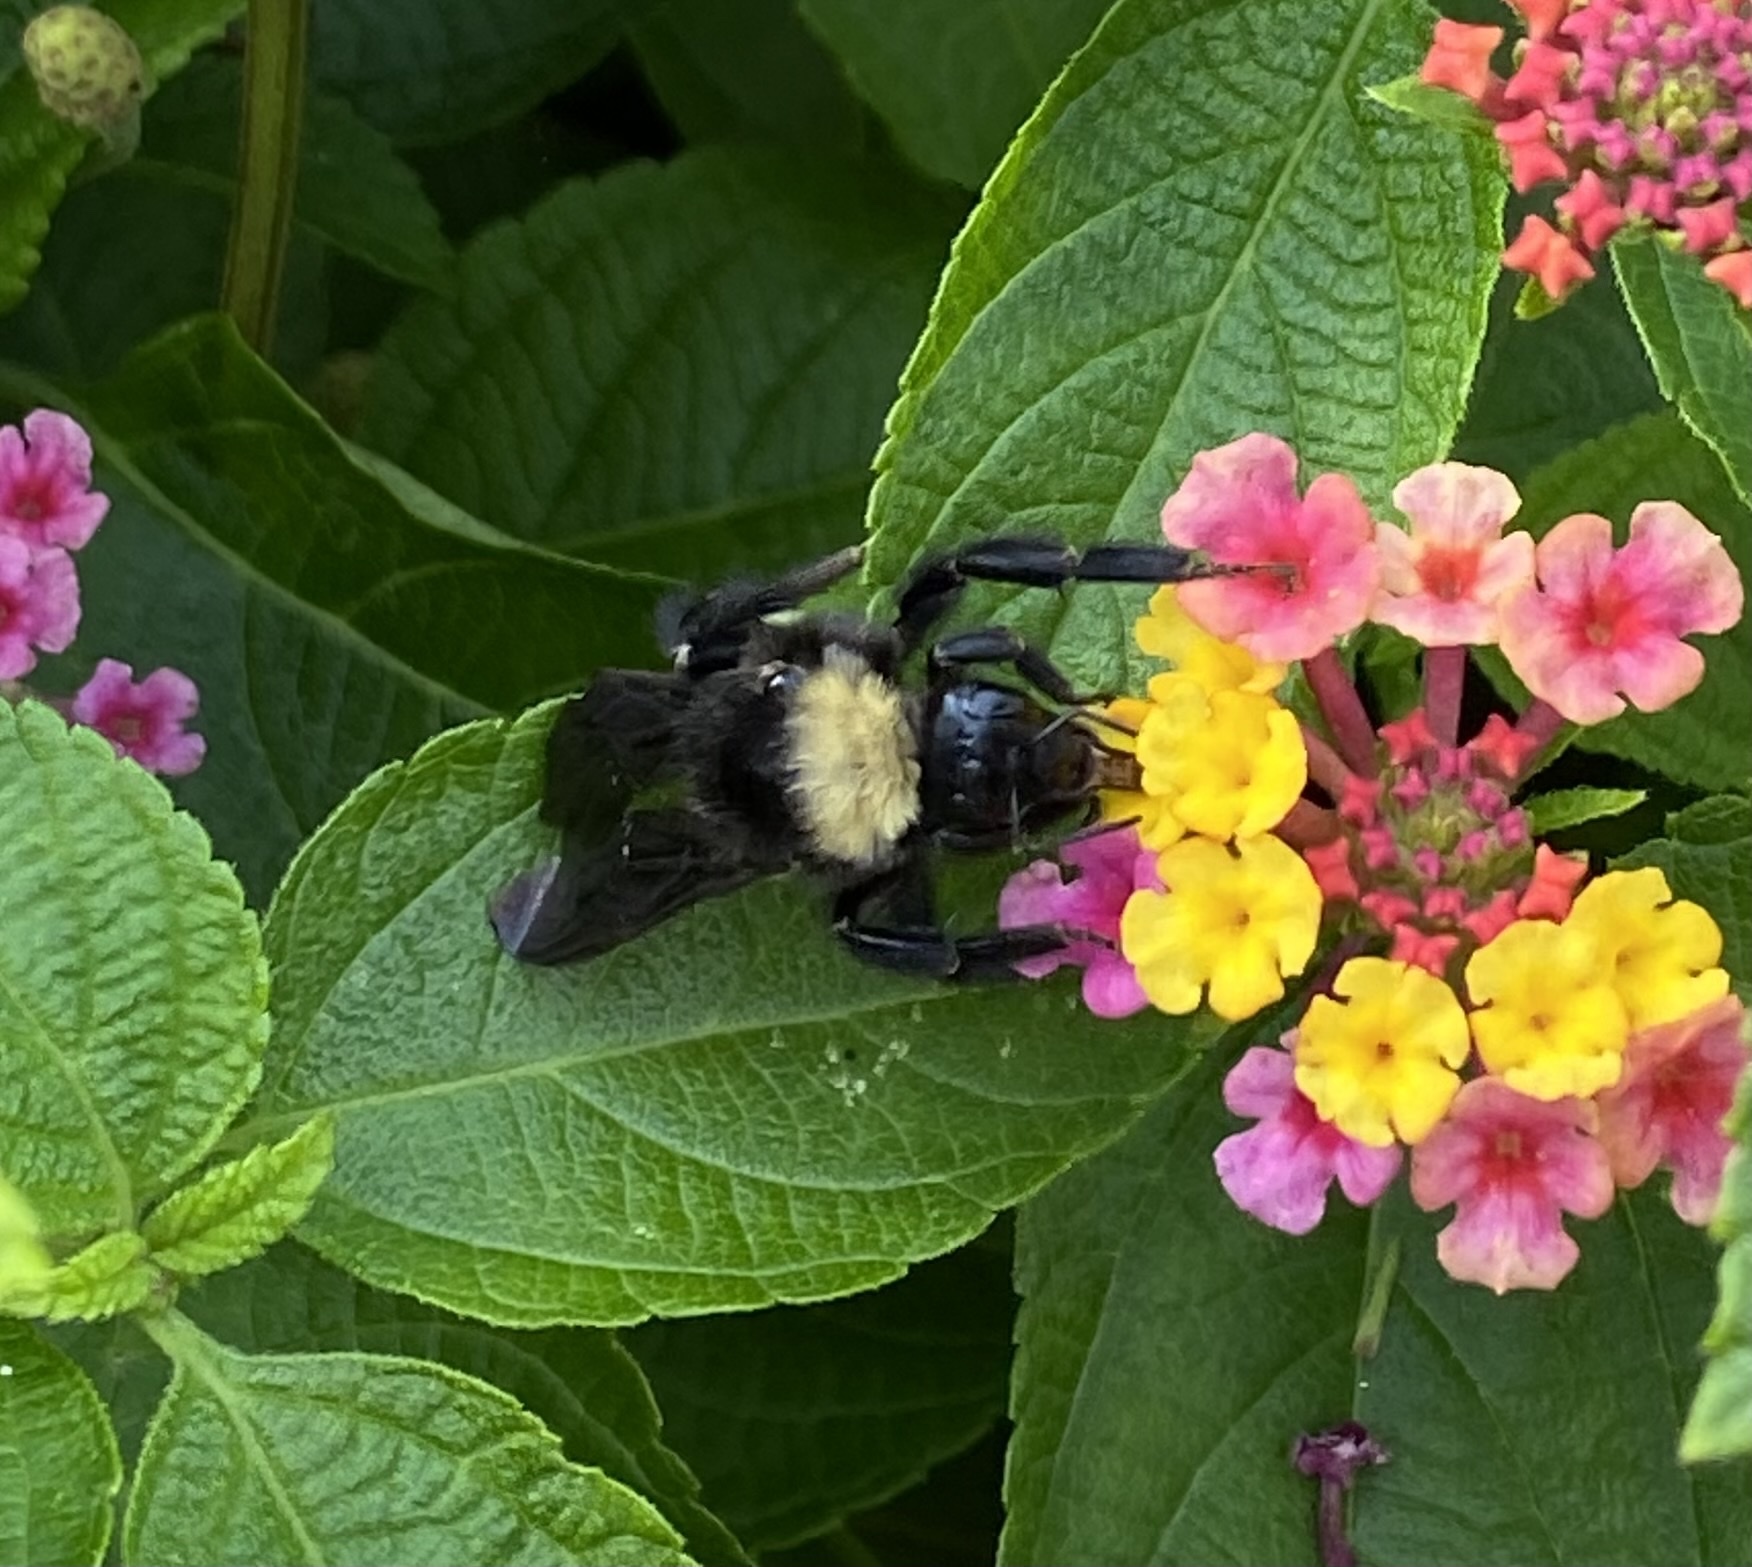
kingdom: Animalia
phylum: Arthropoda
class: Insecta
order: Hymenoptera
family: Apidae
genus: Bombus
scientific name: Bombus pensylvanicus
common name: Bumble bee
